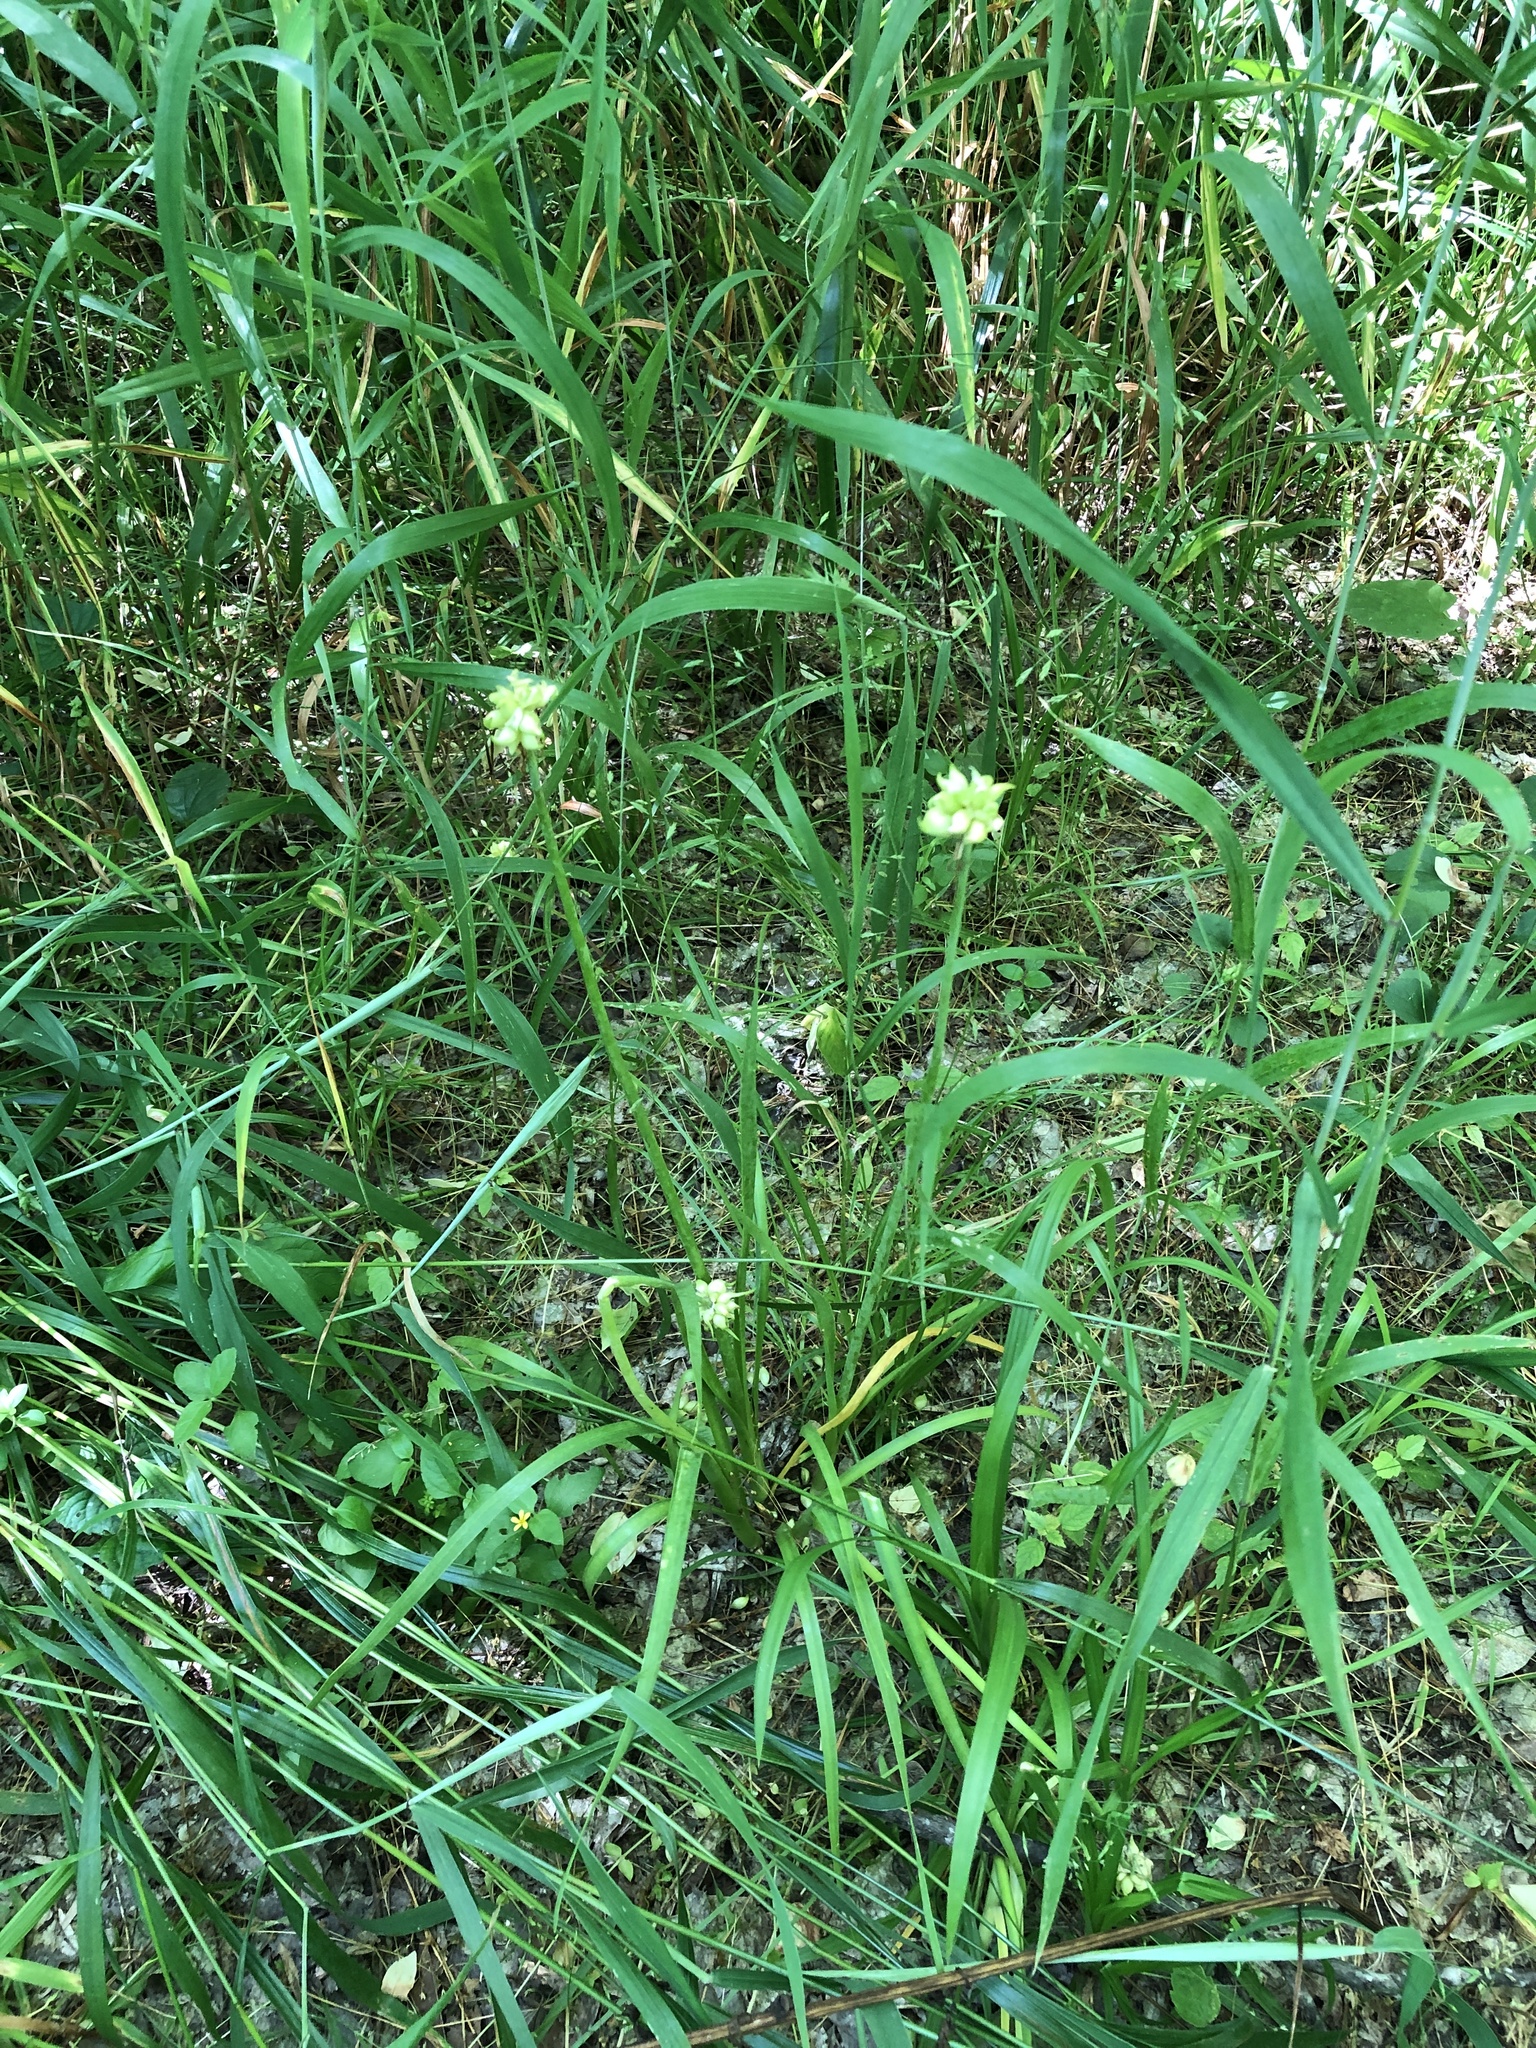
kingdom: Plantae
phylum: Tracheophyta
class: Liliopsida
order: Asparagales
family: Amaryllidaceae
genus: Allium
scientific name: Allium canadense
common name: Meadow garlic
